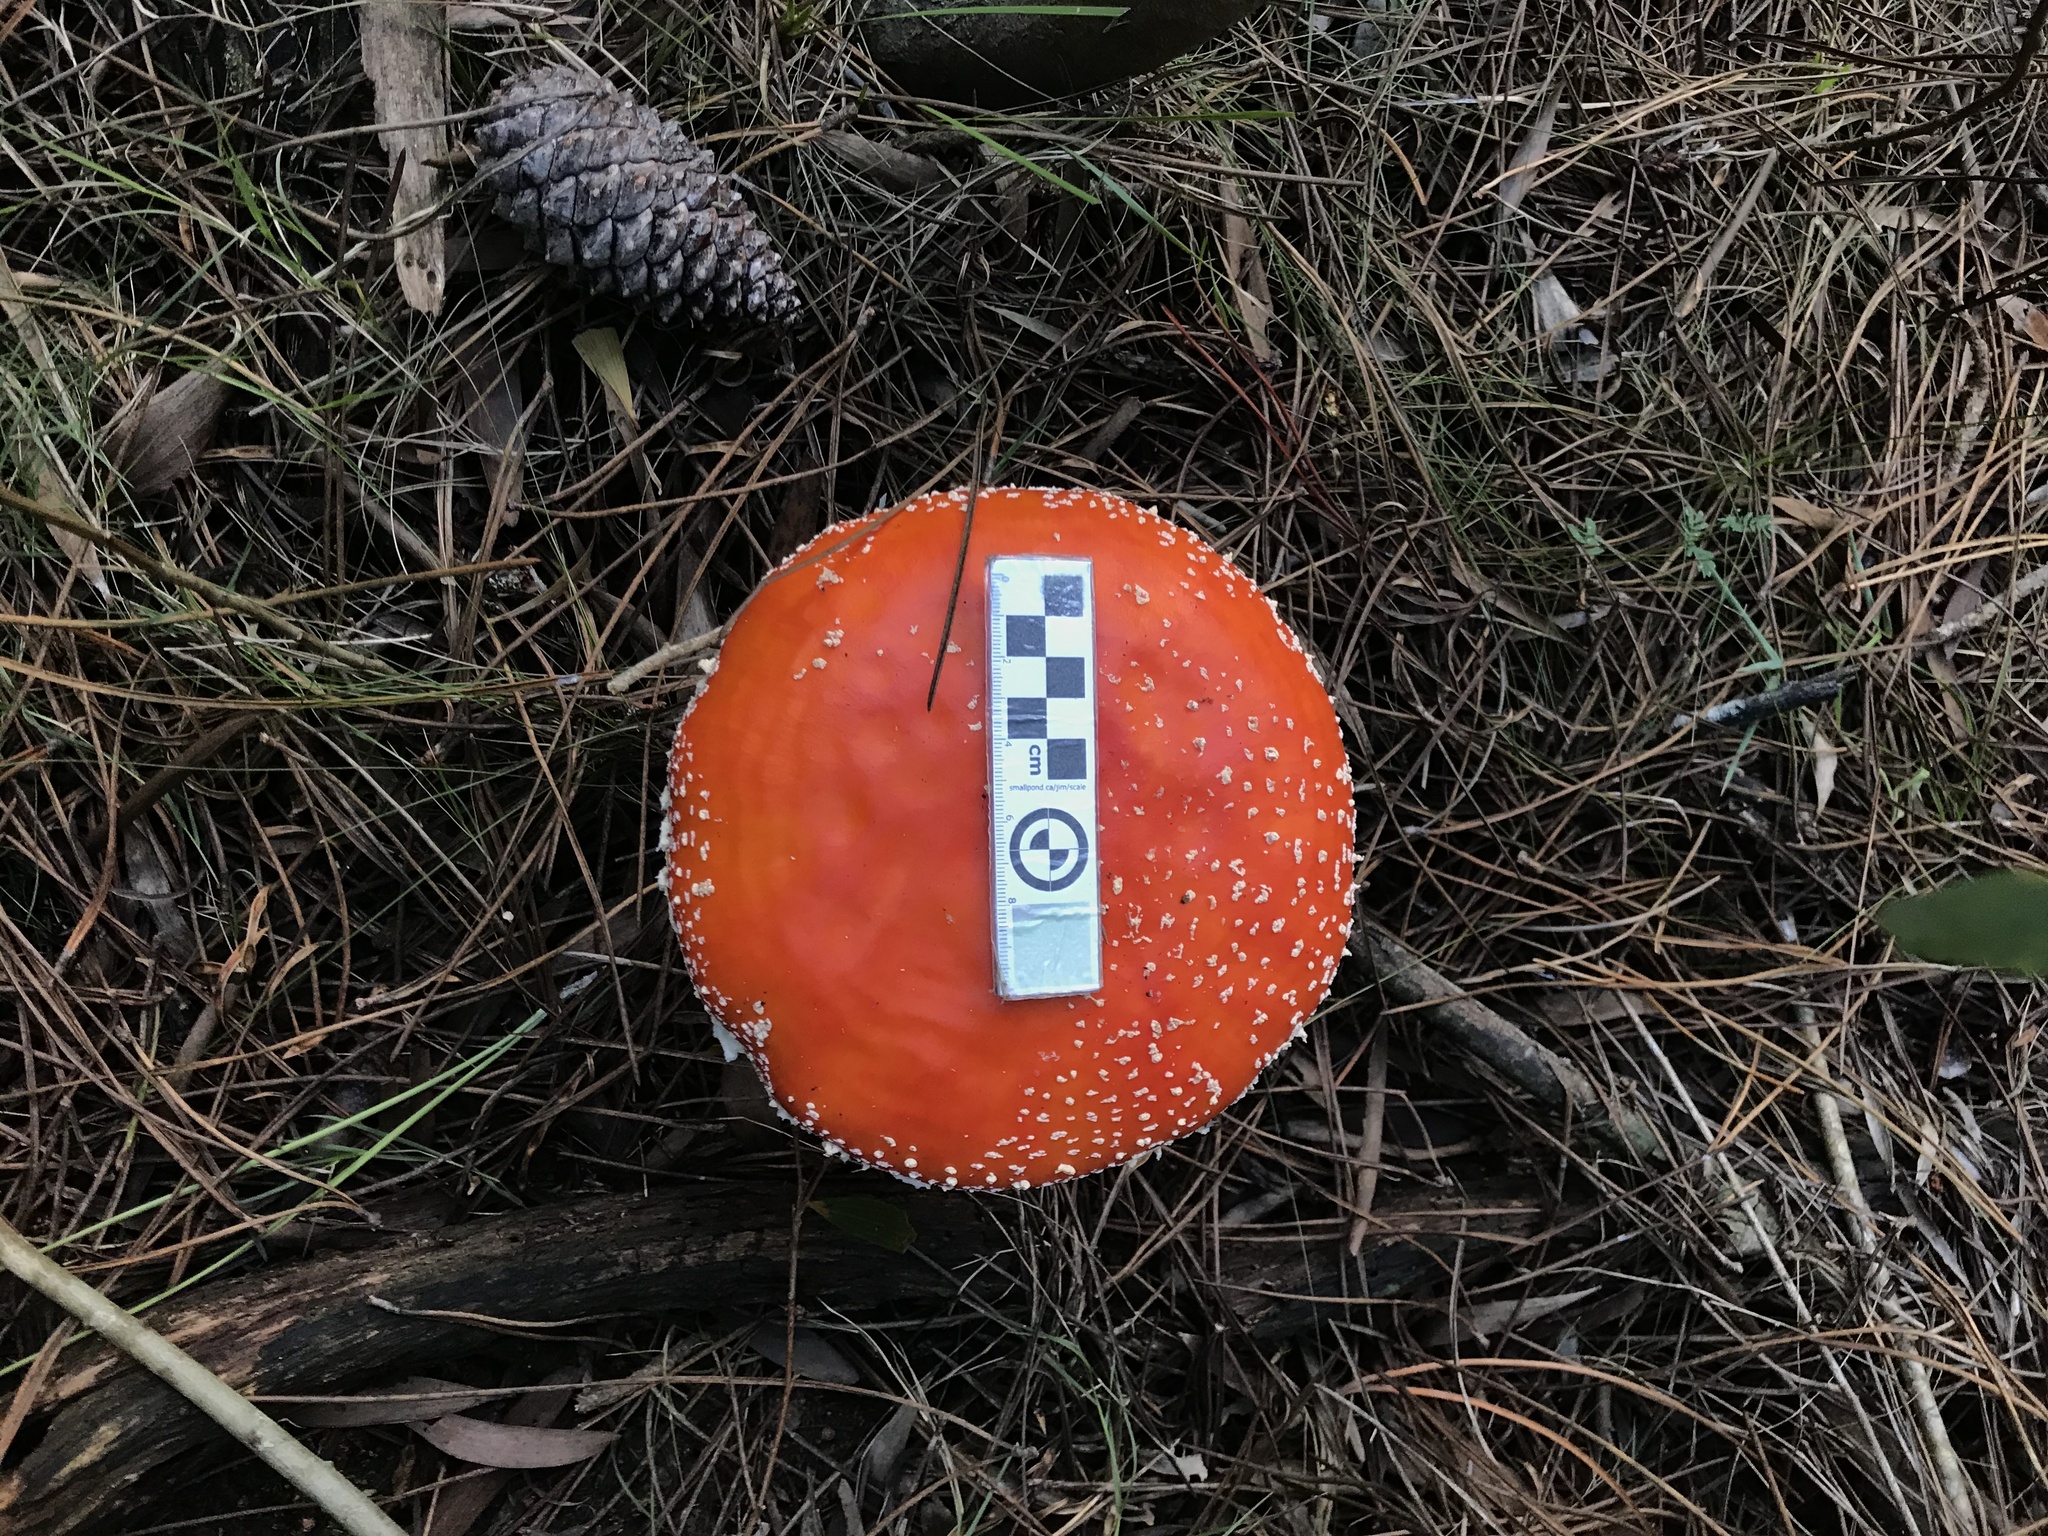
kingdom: Fungi
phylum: Basidiomycota
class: Agaricomycetes
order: Agaricales
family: Amanitaceae
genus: Amanita
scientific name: Amanita muscaria
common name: Fly agaric
